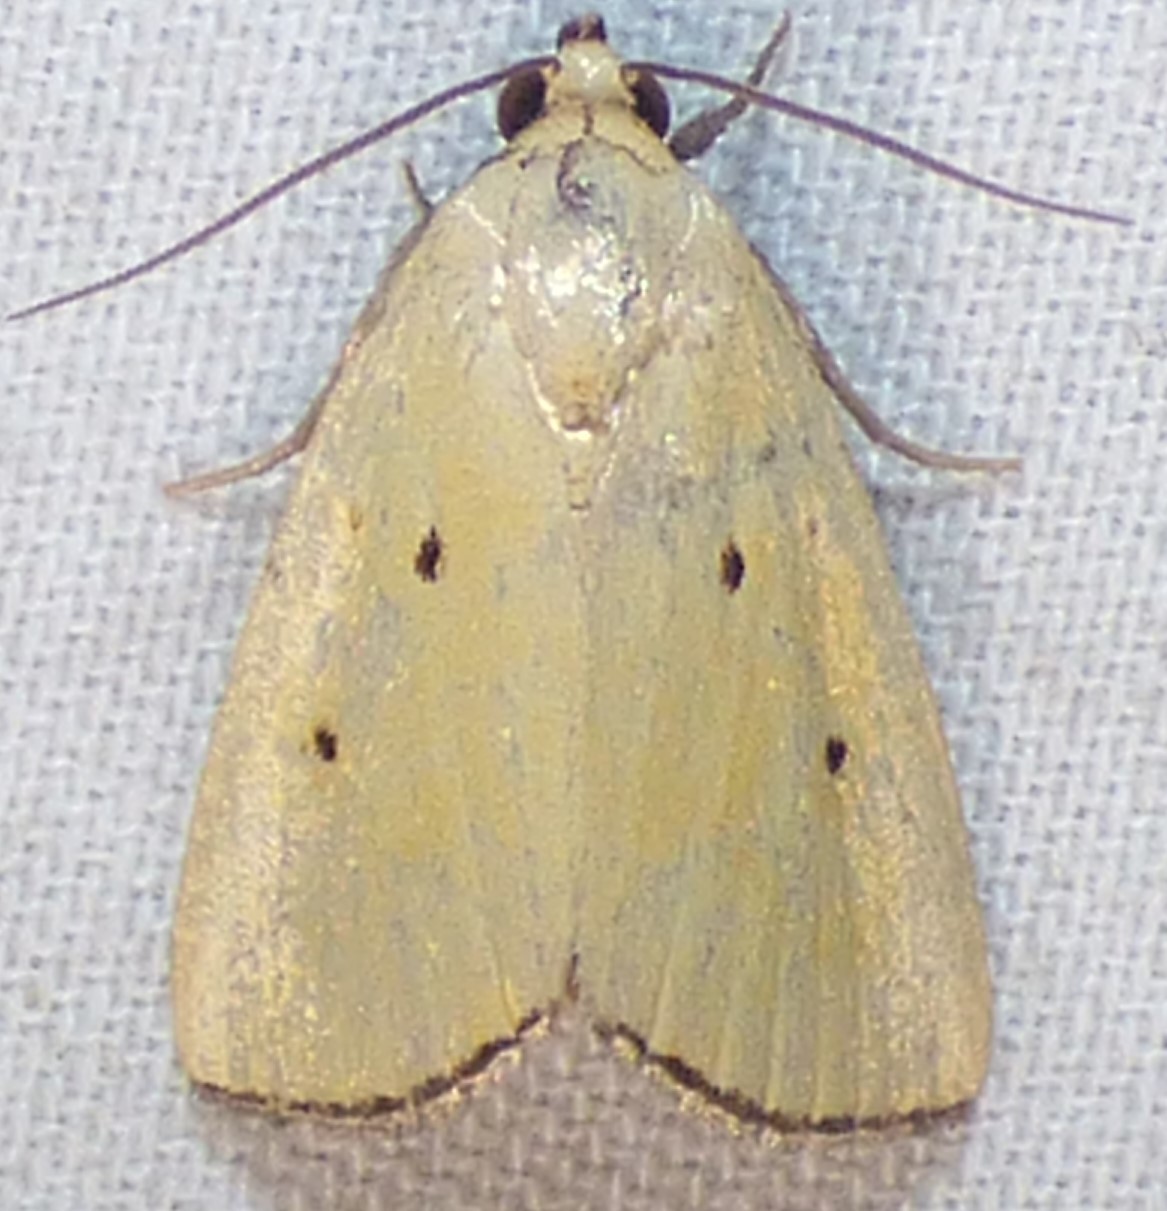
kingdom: Animalia
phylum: Arthropoda
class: Insecta
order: Lepidoptera
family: Noctuidae
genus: Marimatha
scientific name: Marimatha nigrofimbria
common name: Black-bordered lemon moth
